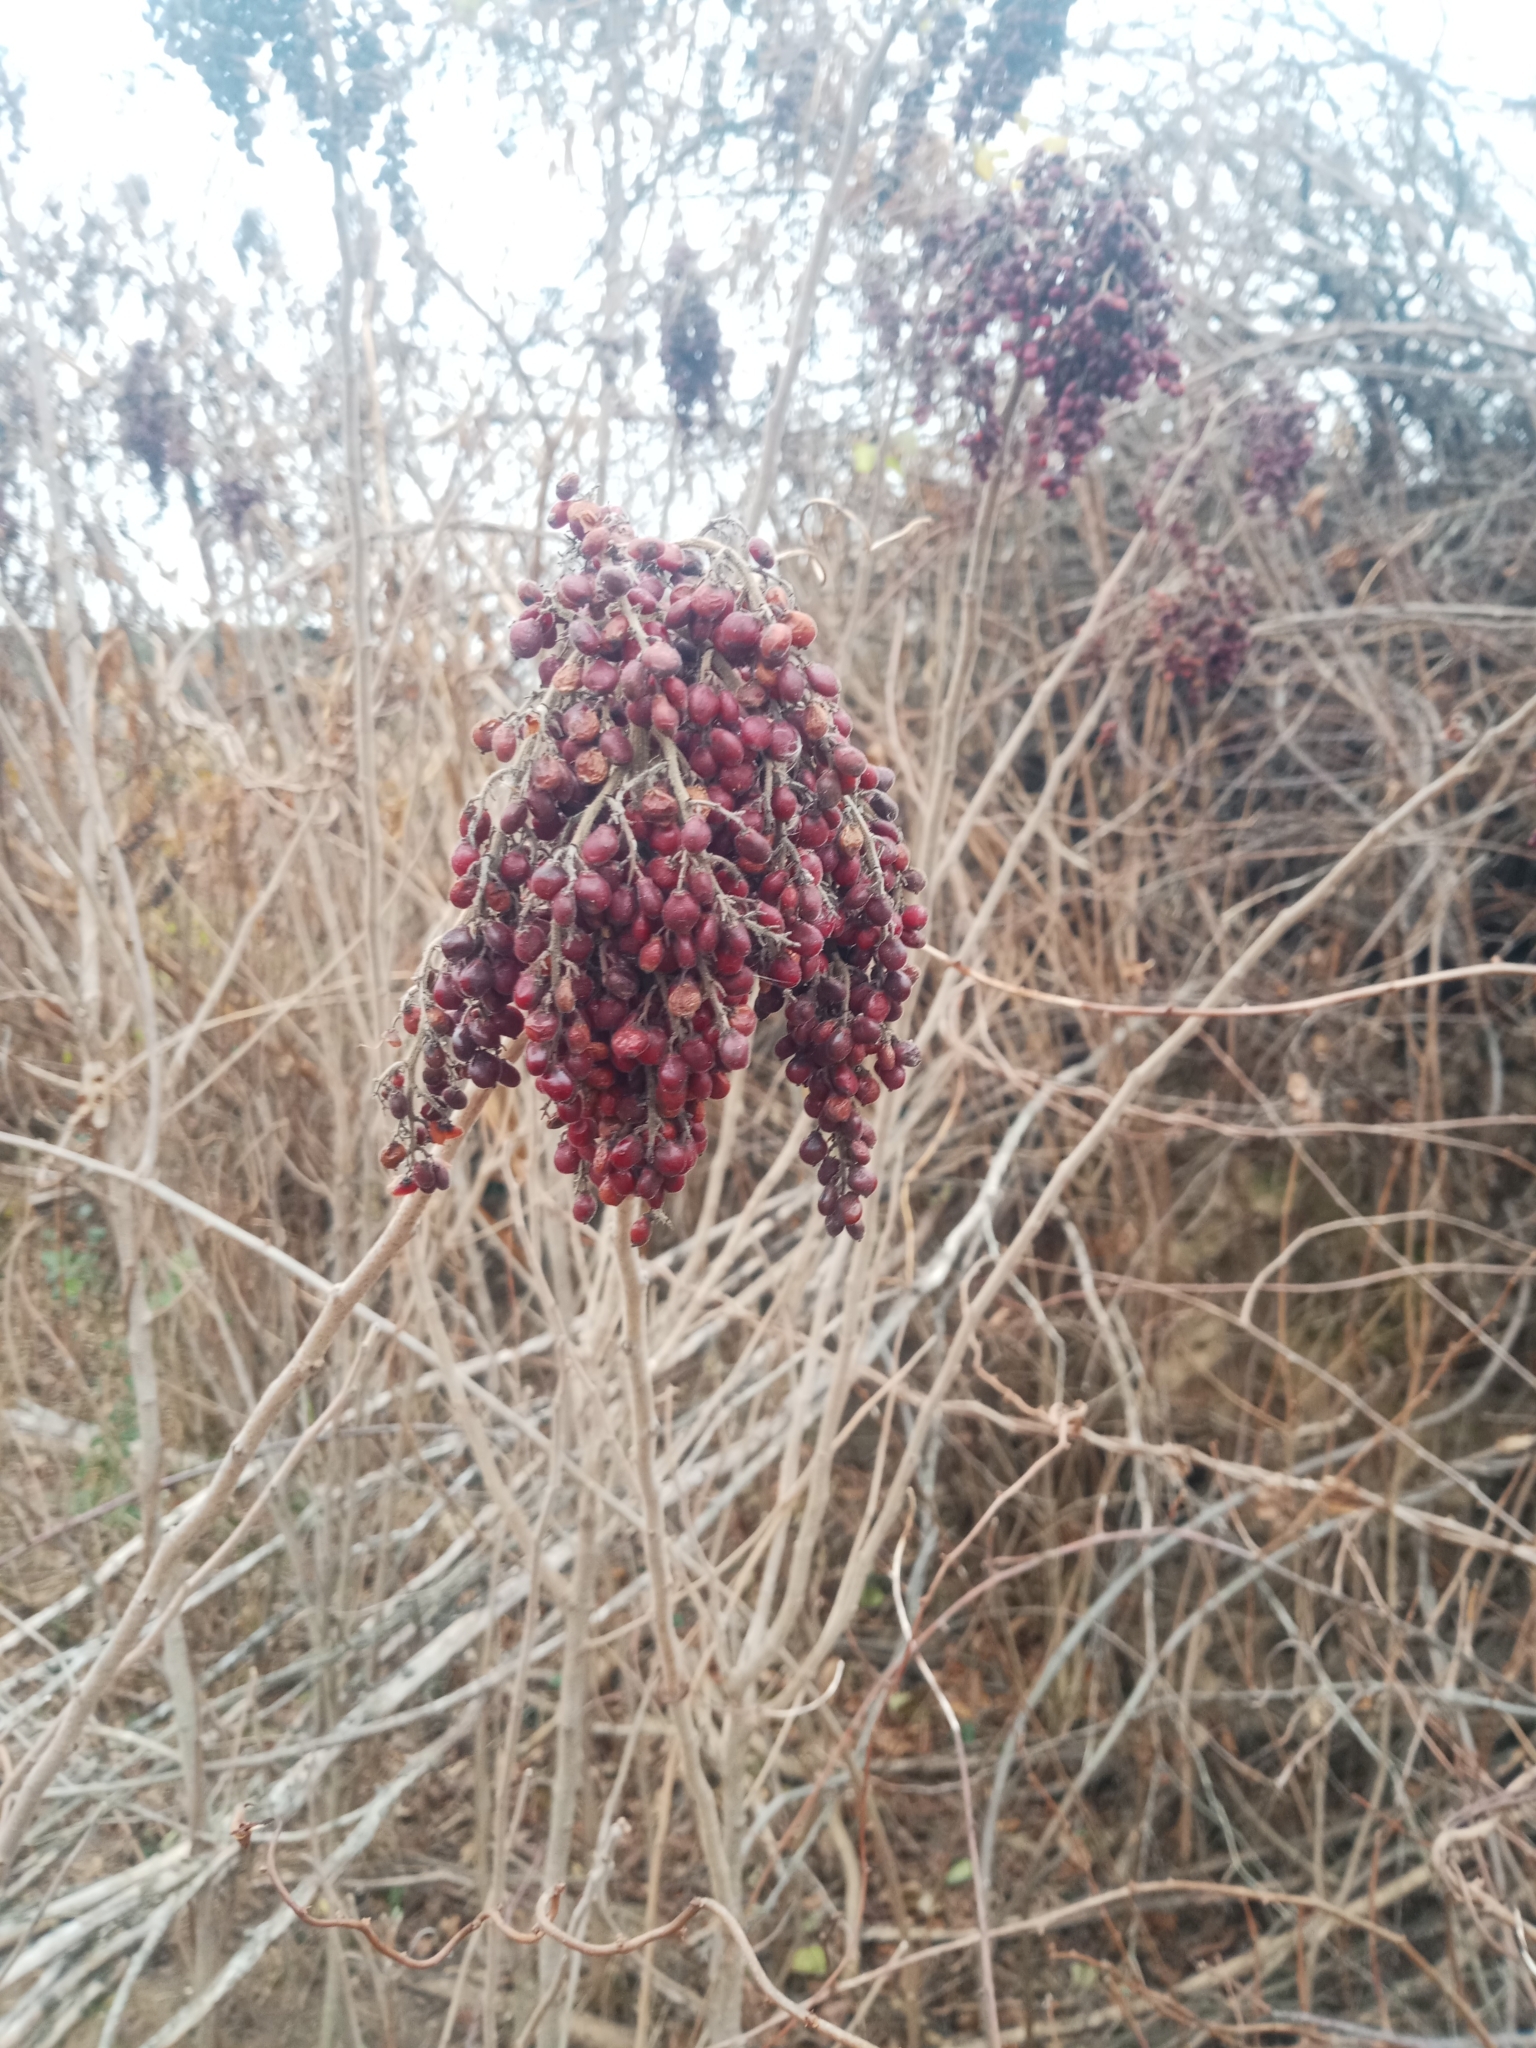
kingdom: Plantae
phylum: Tracheophyta
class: Magnoliopsida
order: Sapindales
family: Anacardiaceae
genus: Rhus
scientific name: Rhus copallina
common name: Shining sumac
